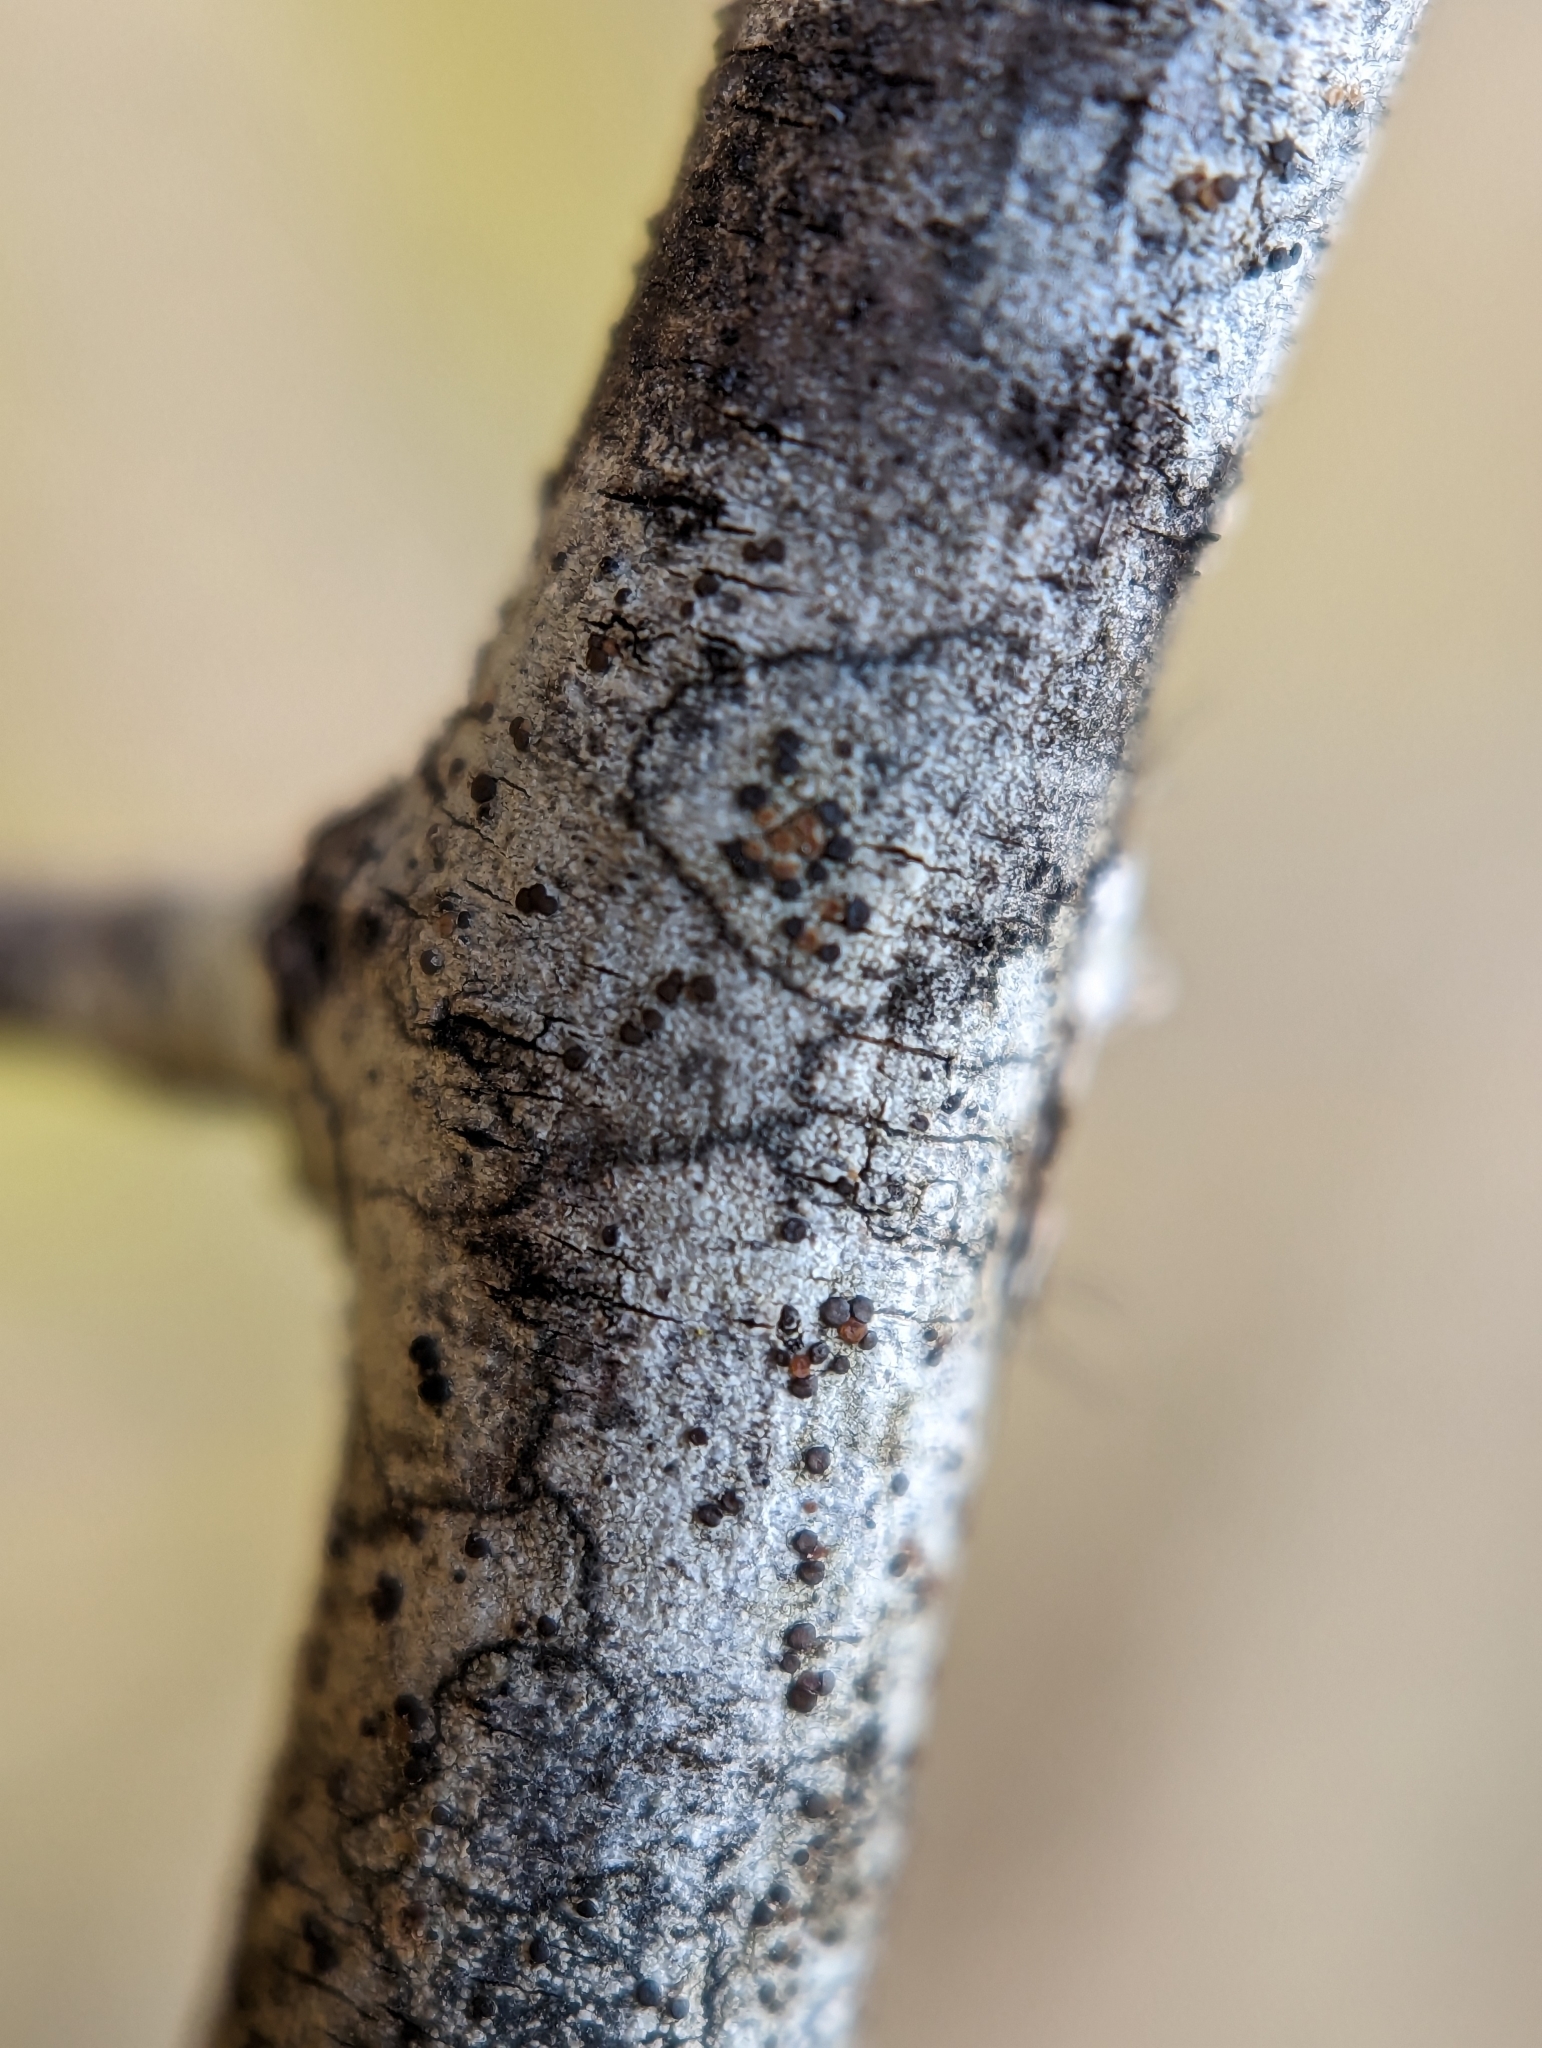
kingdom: Fungi
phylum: Ascomycota
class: Lecanoromycetes
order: Lecanorales
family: Lecanoraceae
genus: Traponora
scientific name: Traponora varians
